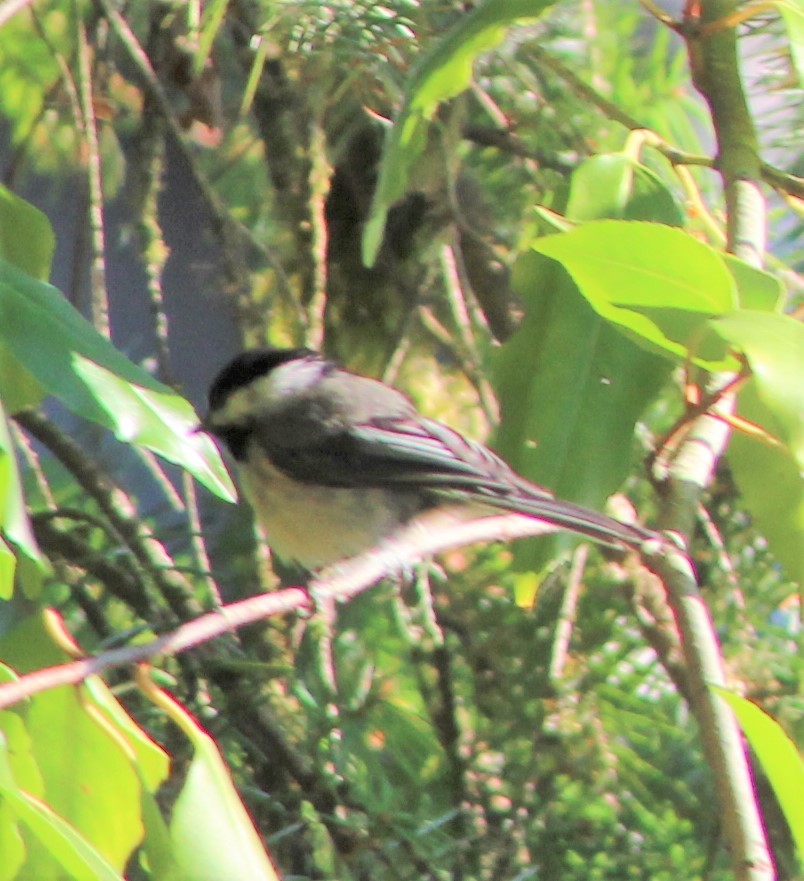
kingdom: Animalia
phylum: Chordata
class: Aves
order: Passeriformes
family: Paridae
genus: Poecile
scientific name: Poecile atricapillus
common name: Black-capped chickadee
